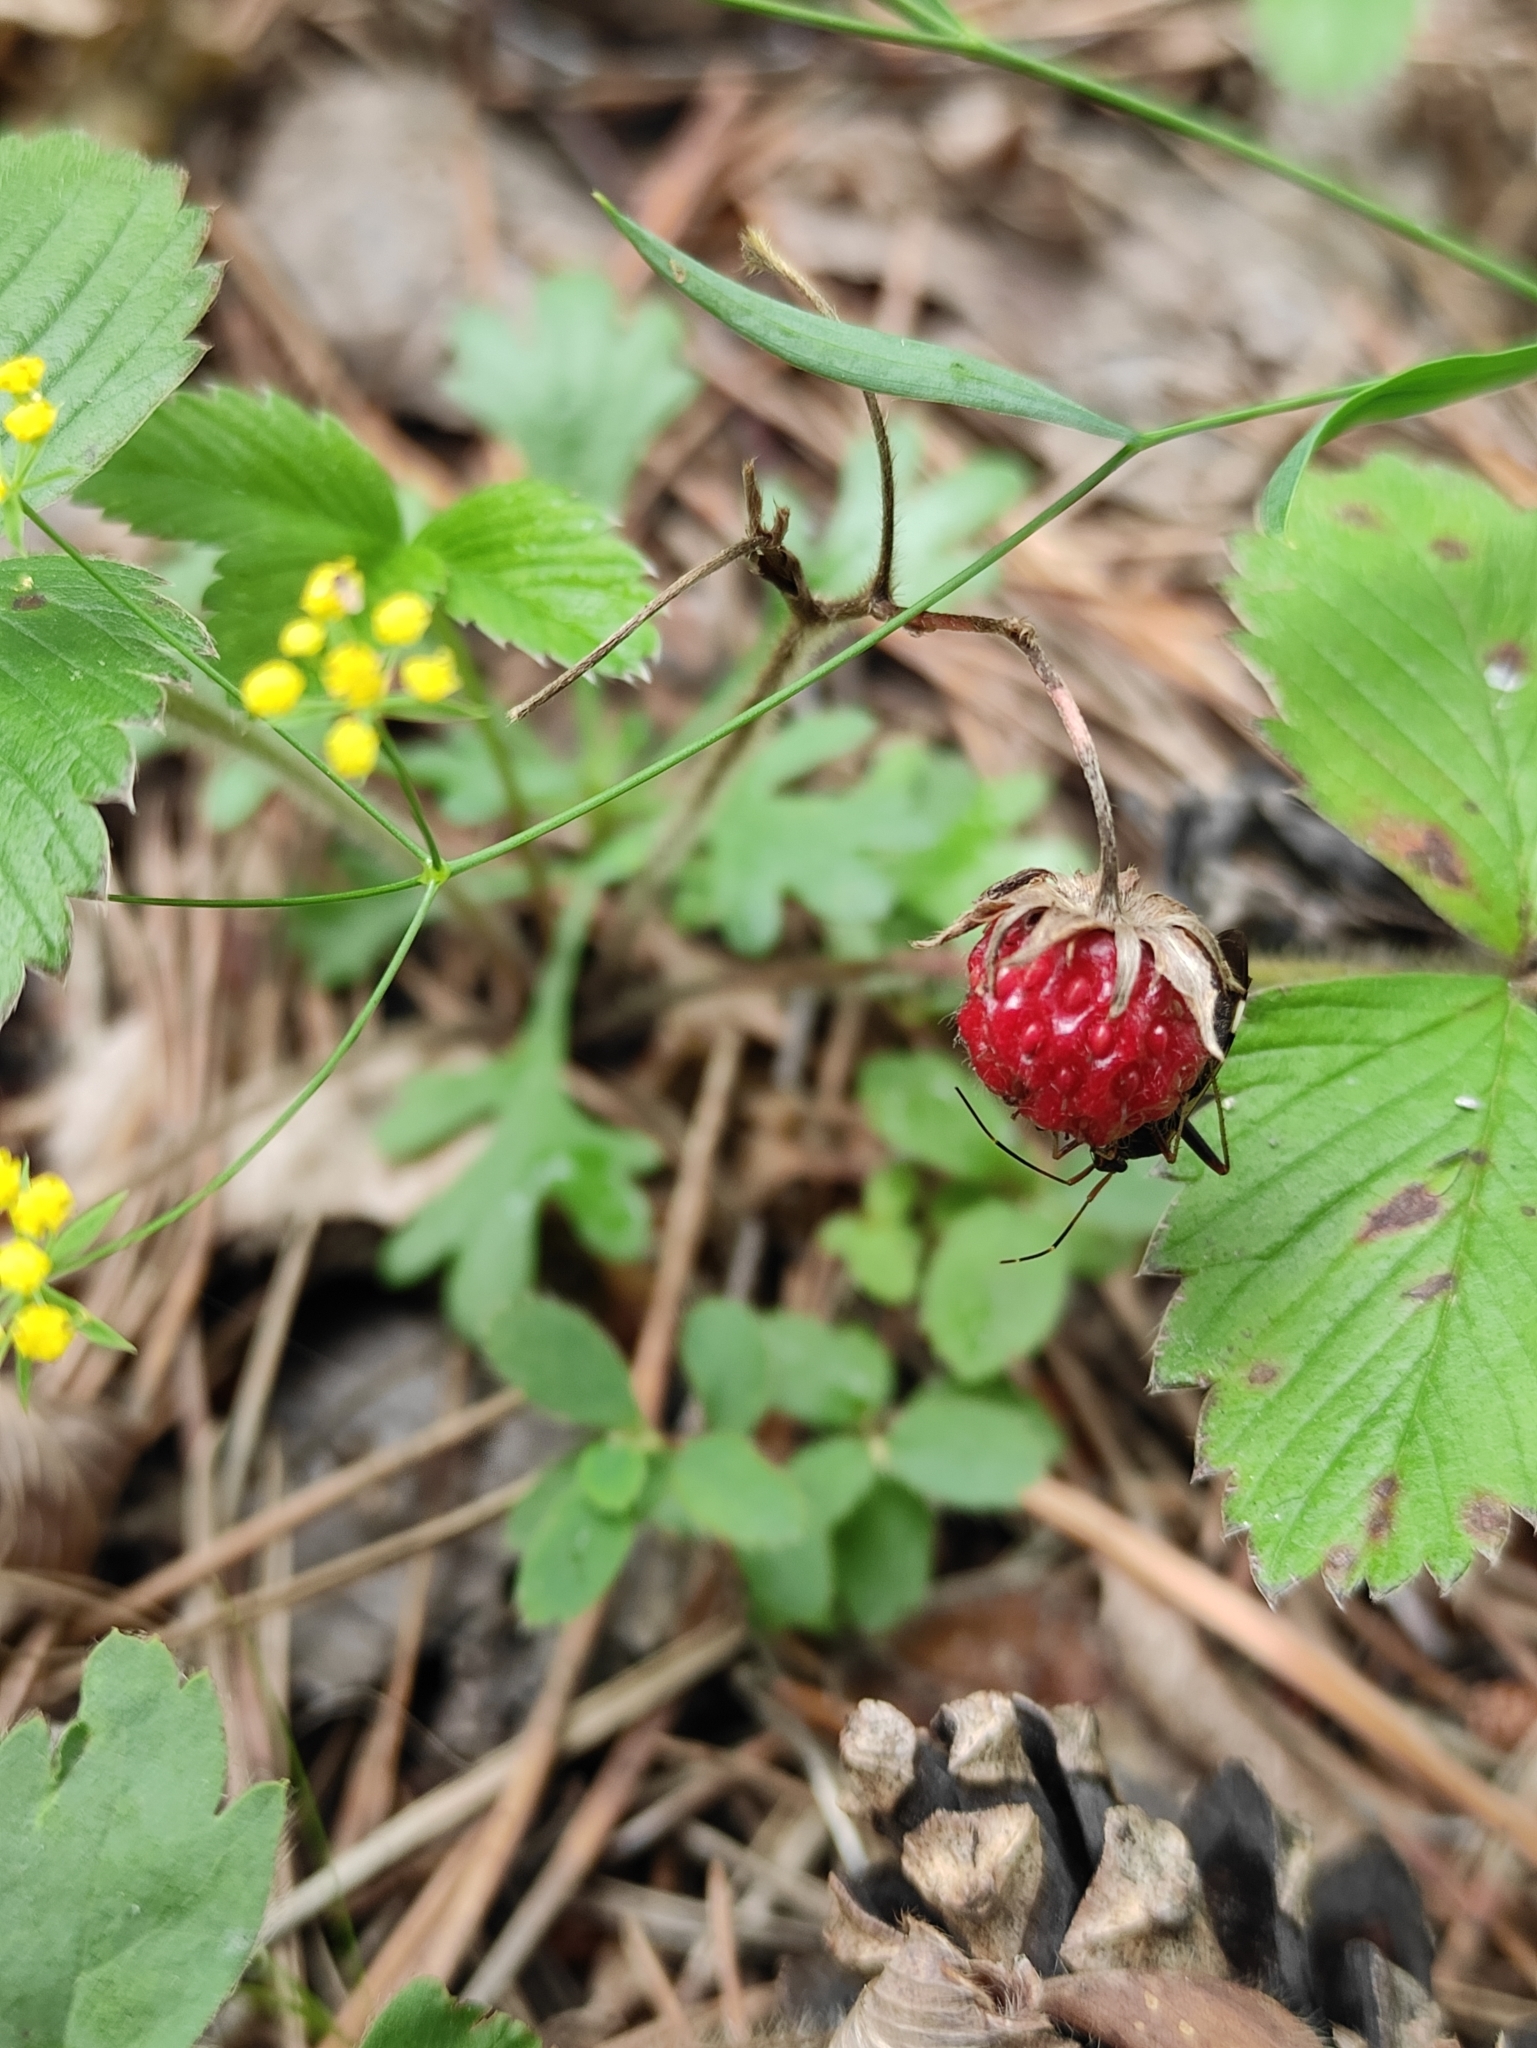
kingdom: Plantae
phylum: Tracheophyta
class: Magnoliopsida
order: Rosales
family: Rosaceae
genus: Fragaria
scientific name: Fragaria viridis
